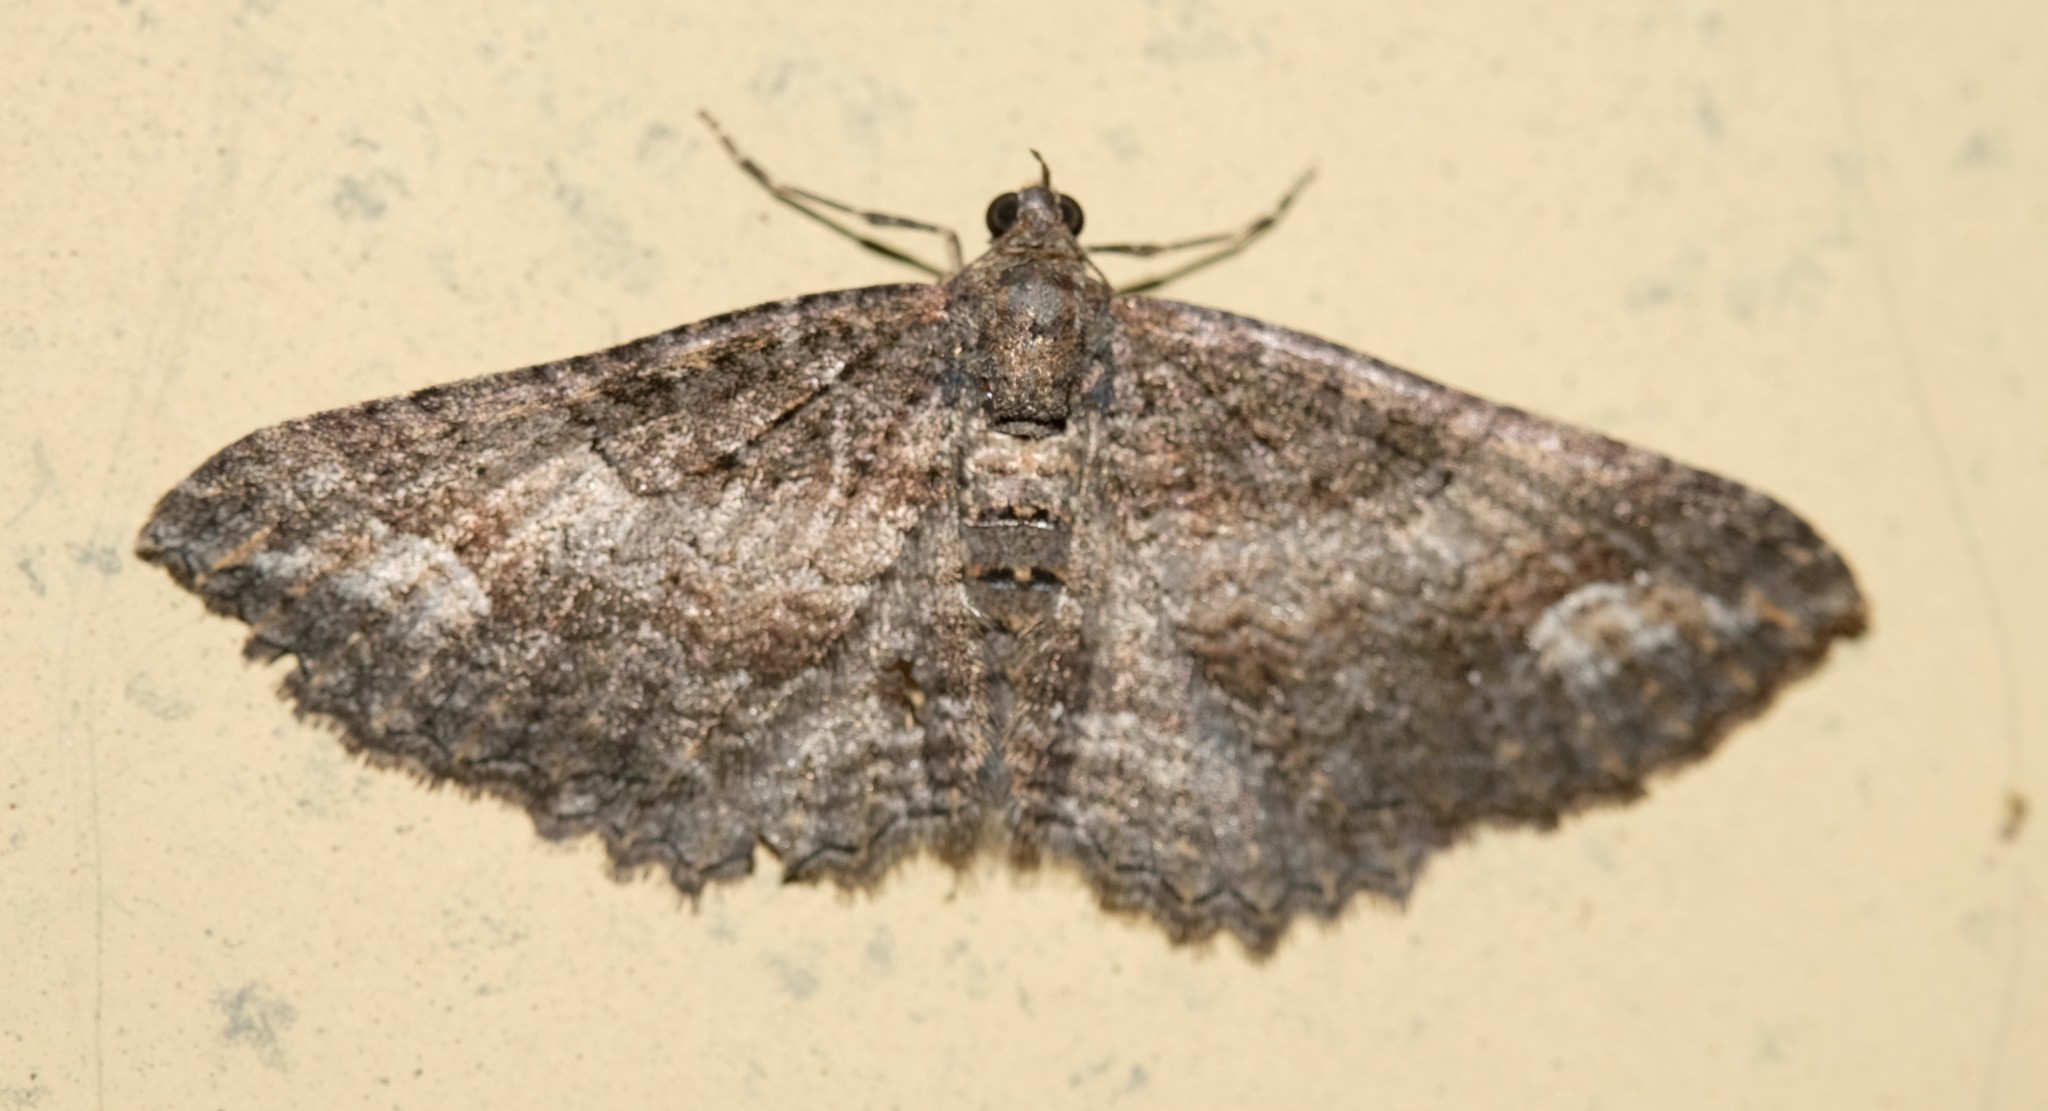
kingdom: Animalia
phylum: Arthropoda
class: Insecta
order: Lepidoptera
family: Geometridae
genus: Eupithecia
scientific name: Eupithecia Eucymatoge scotodes
